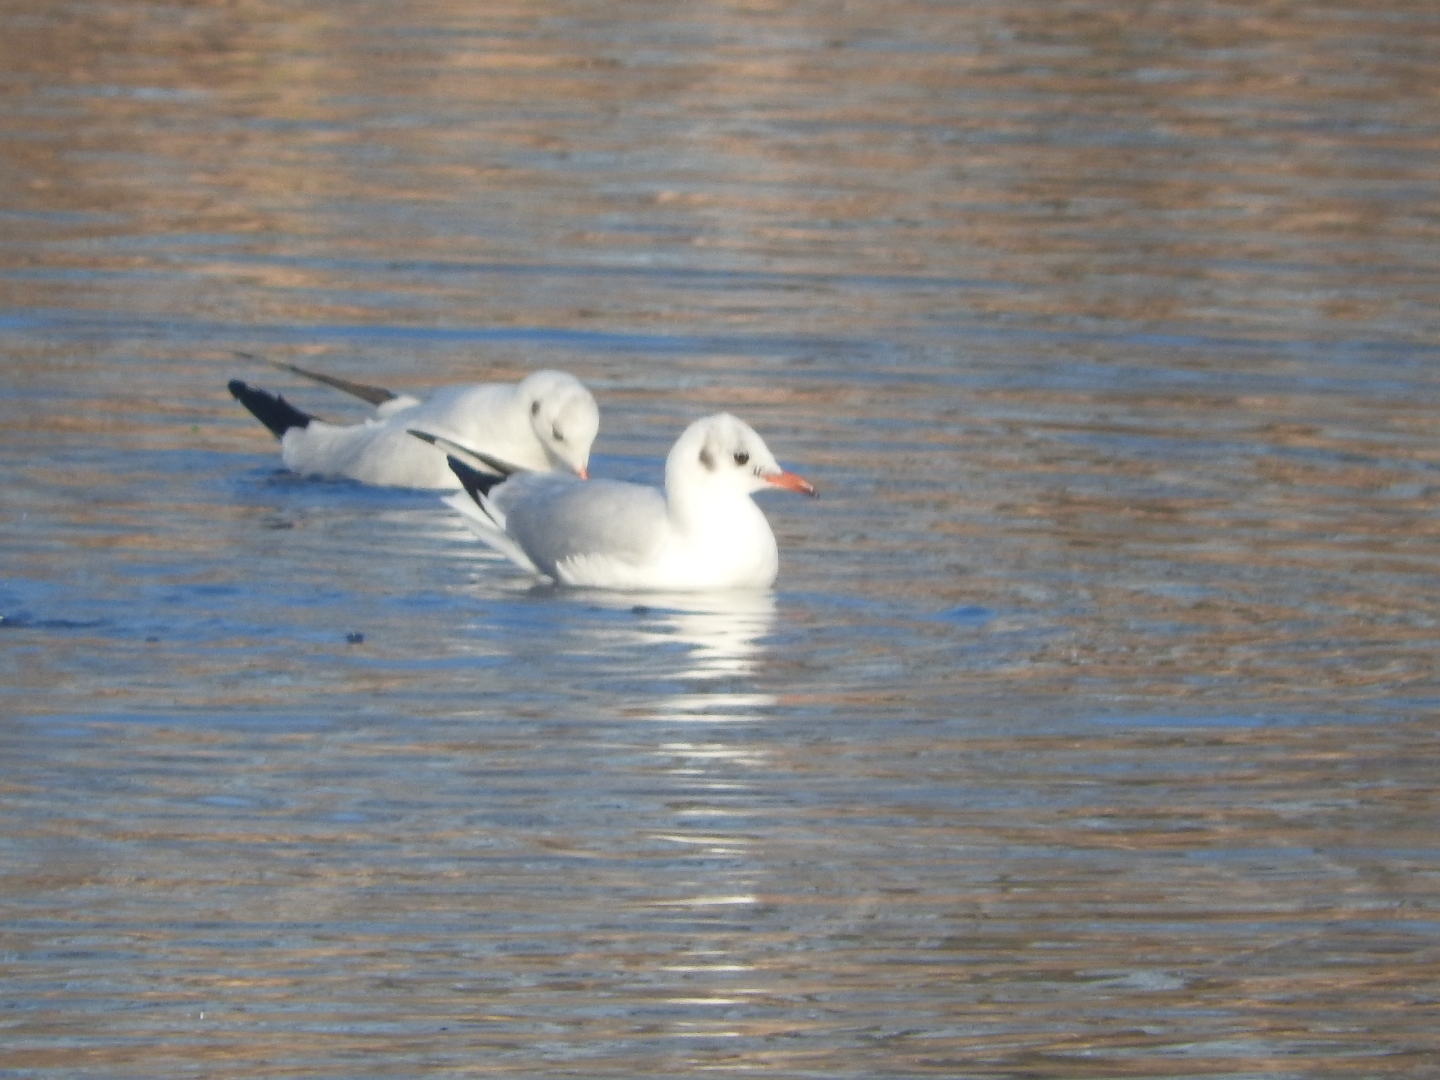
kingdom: Animalia
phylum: Chordata
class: Aves
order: Charadriiformes
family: Laridae
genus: Chroicocephalus
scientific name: Chroicocephalus ridibundus
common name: Black-headed gull
